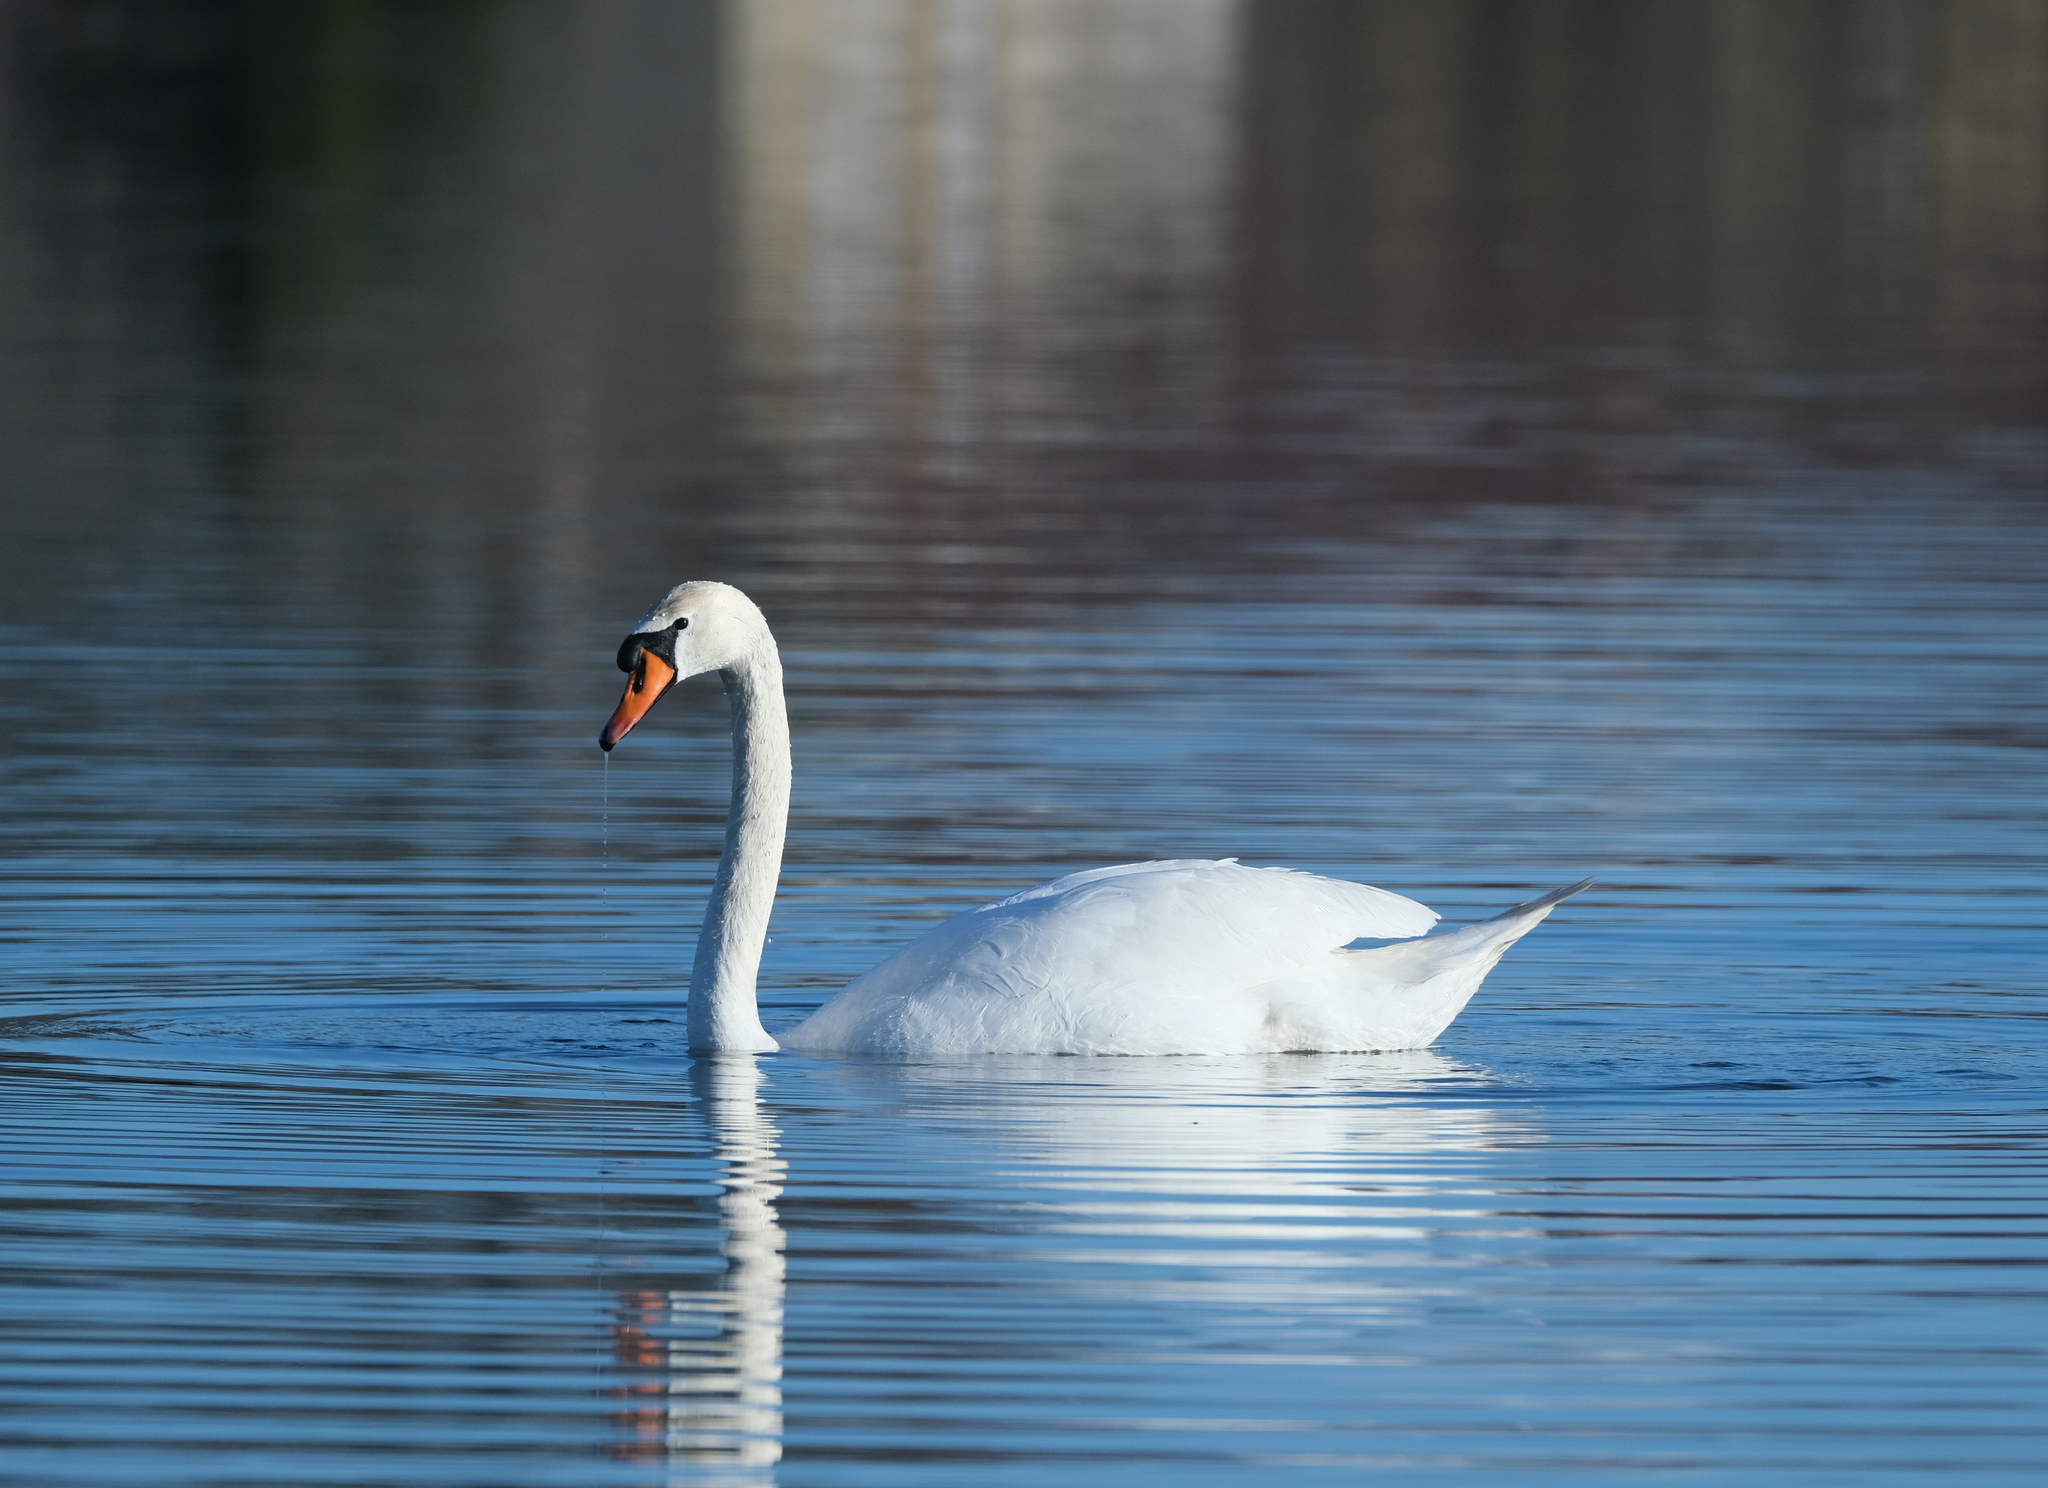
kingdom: Animalia
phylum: Chordata
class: Aves
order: Anseriformes
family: Anatidae
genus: Cygnus
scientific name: Cygnus olor
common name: Mute swan
